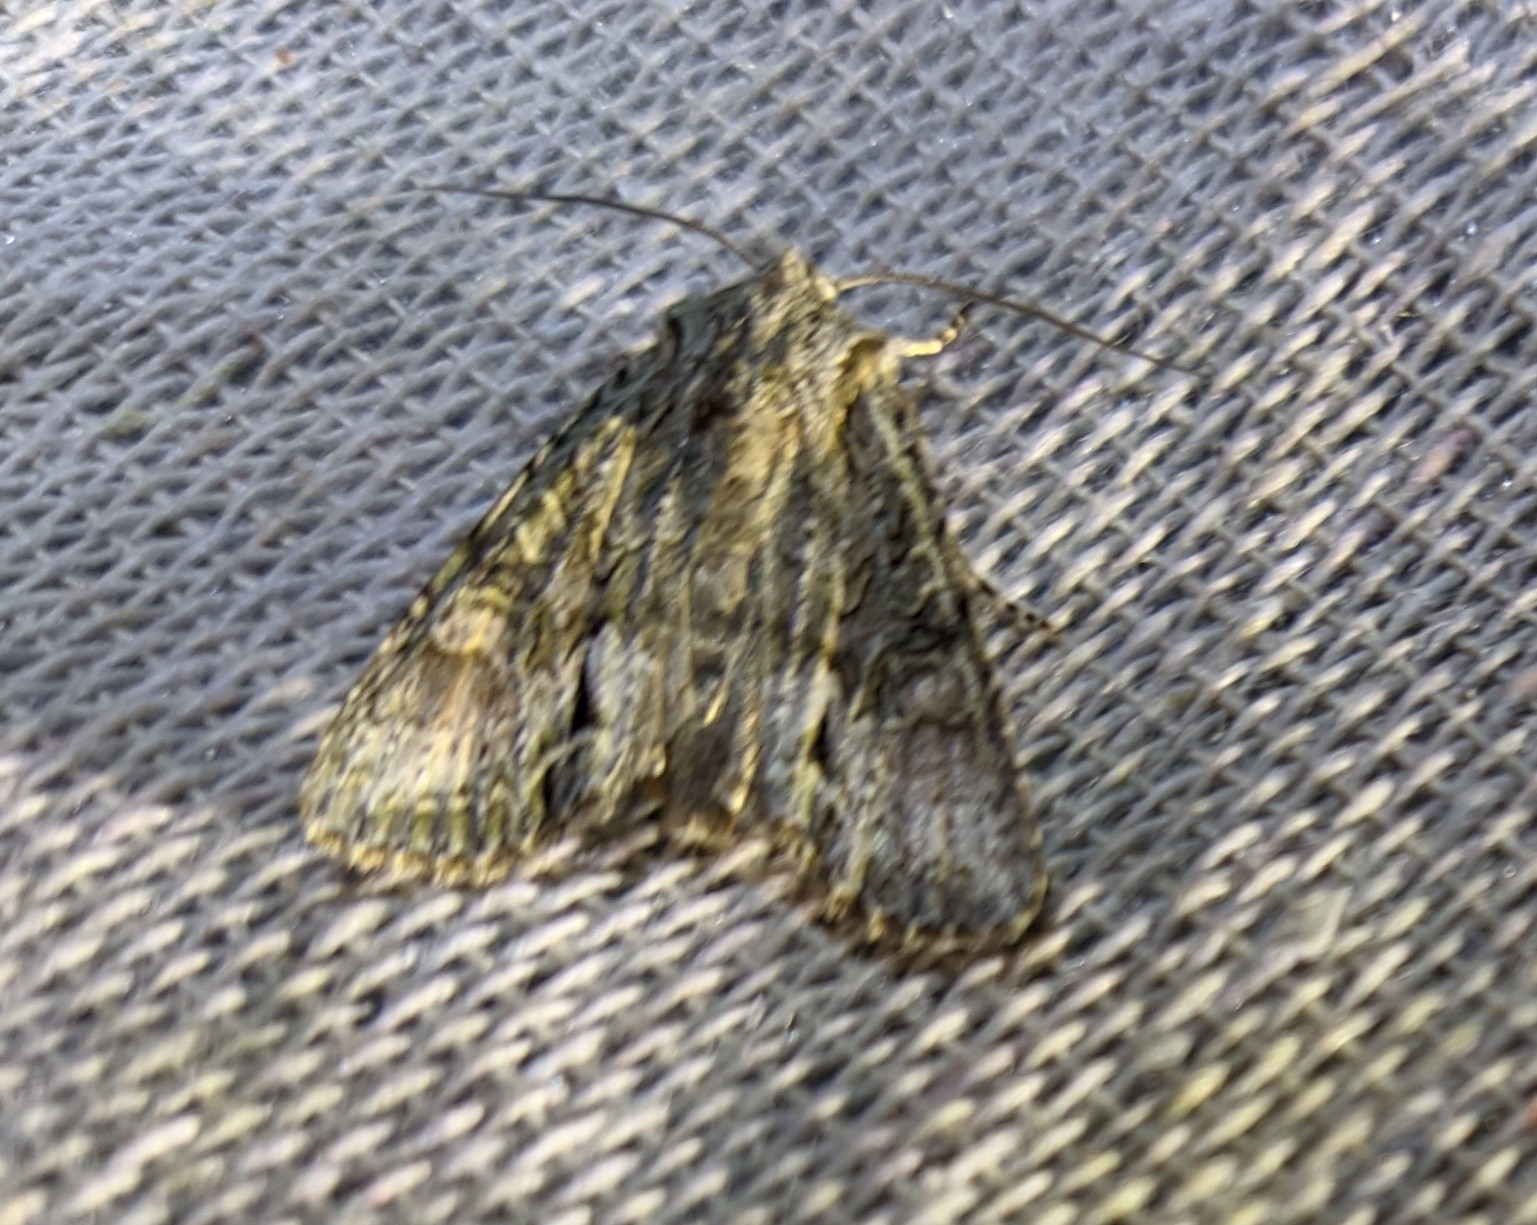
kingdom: Animalia
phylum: Arthropoda
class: Insecta
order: Lepidoptera
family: Noctuidae
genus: Ichneutica
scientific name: Ichneutica mutans
